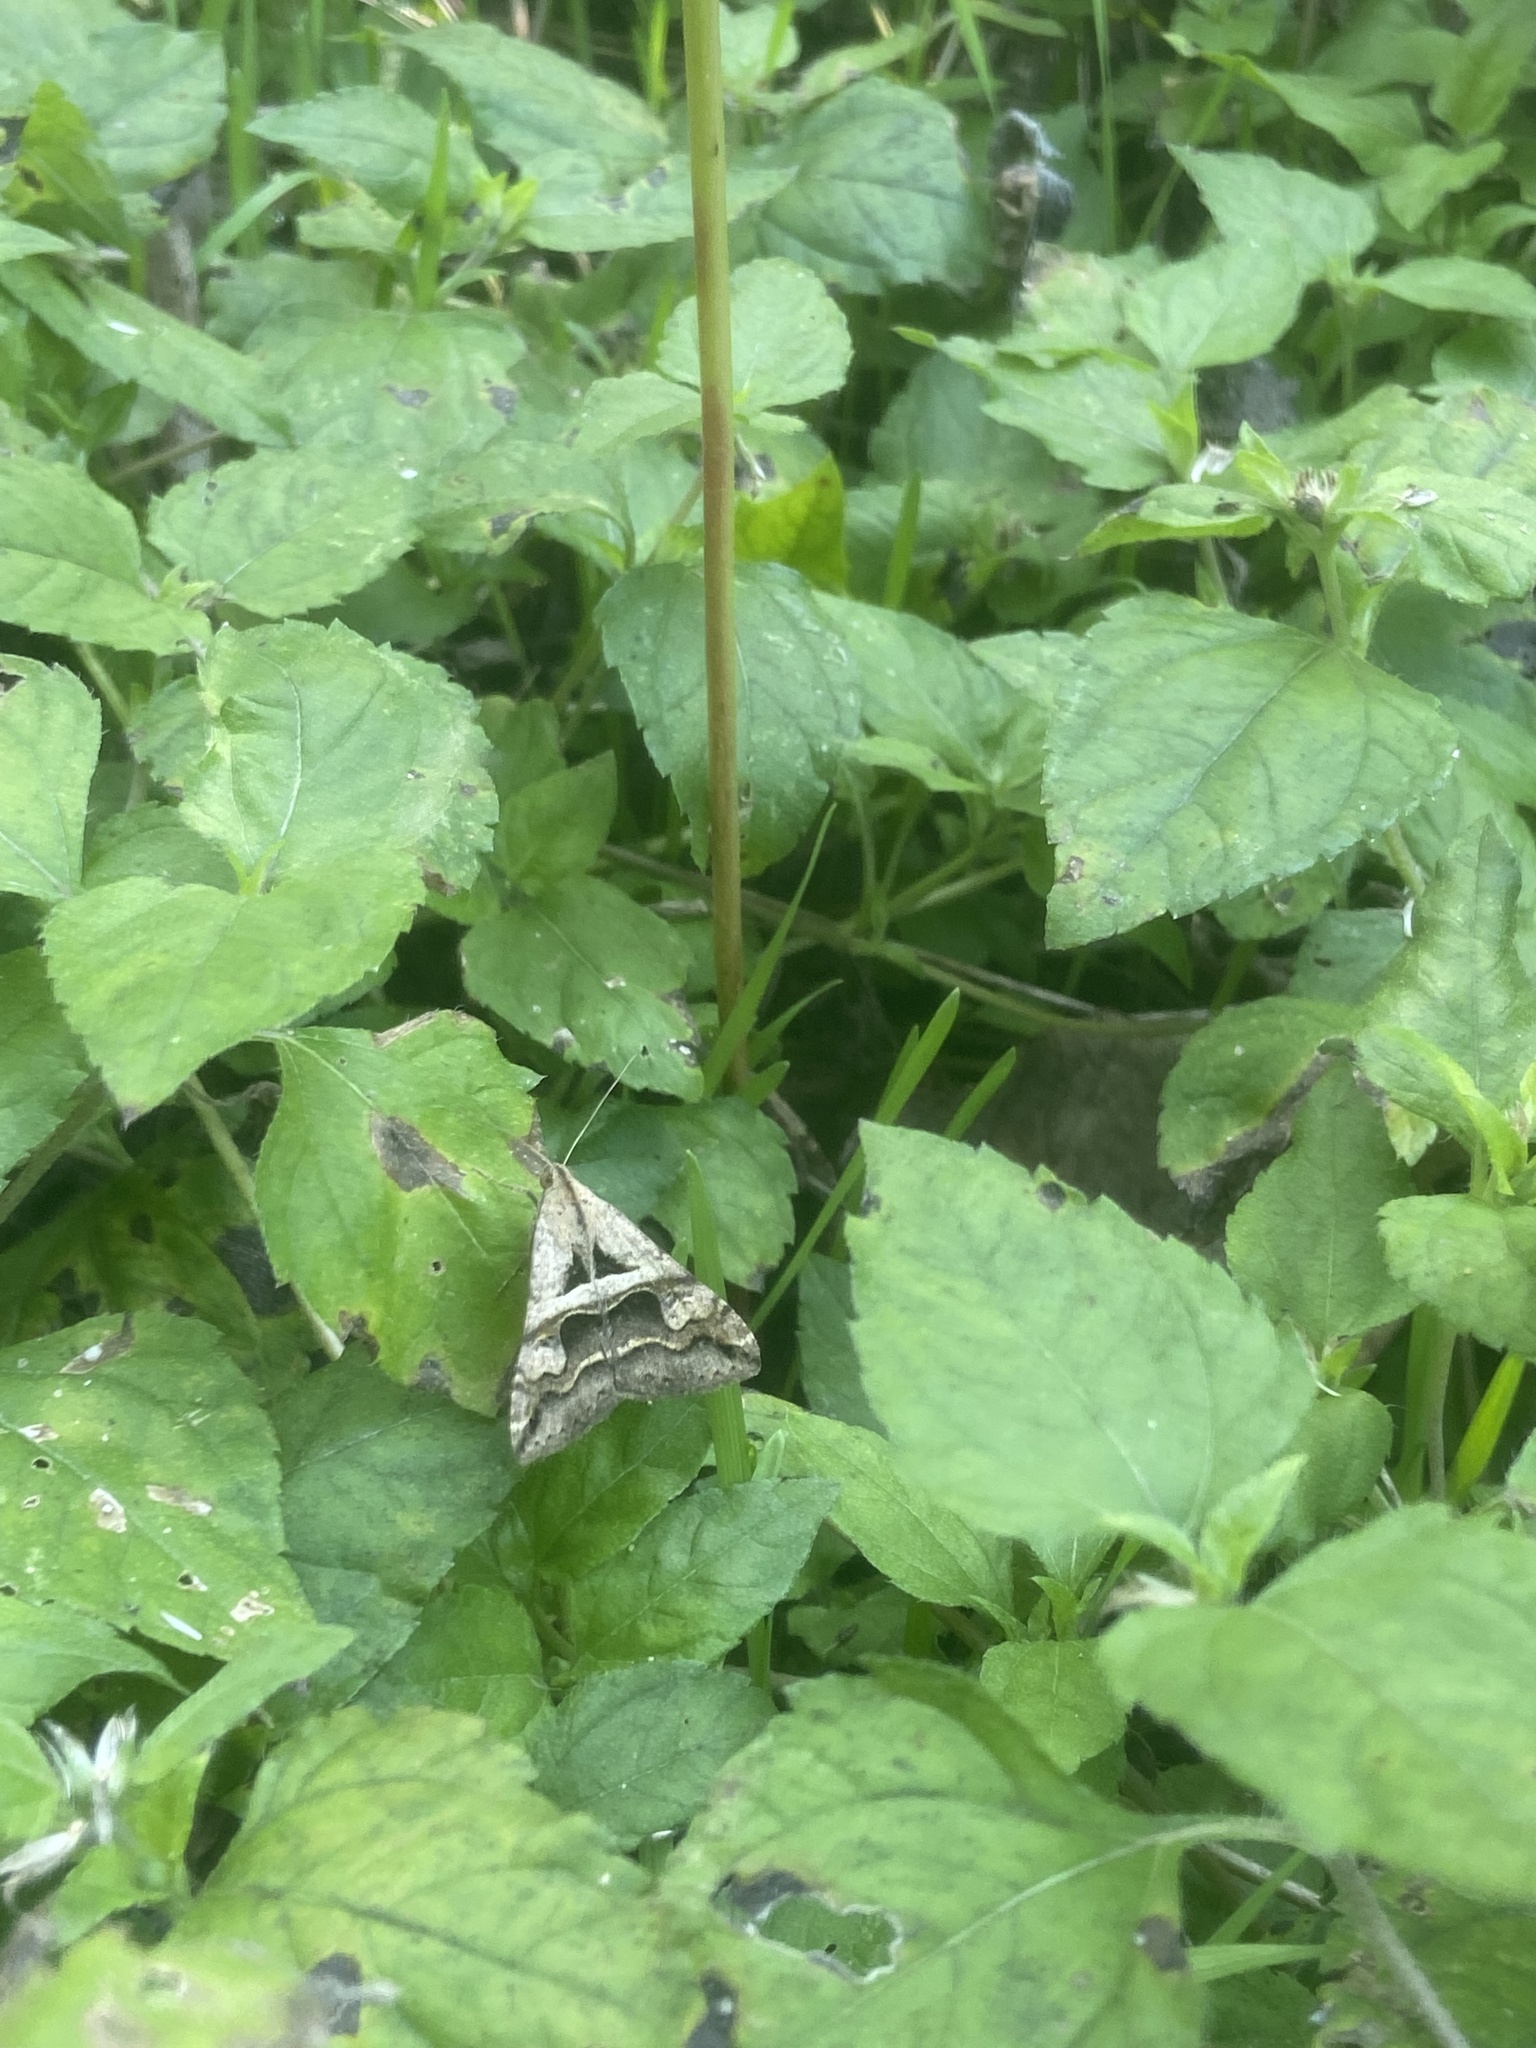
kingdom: Animalia
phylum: Arthropoda
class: Insecta
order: Lepidoptera
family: Erebidae
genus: Melipotis
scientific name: Melipotis cellaris
